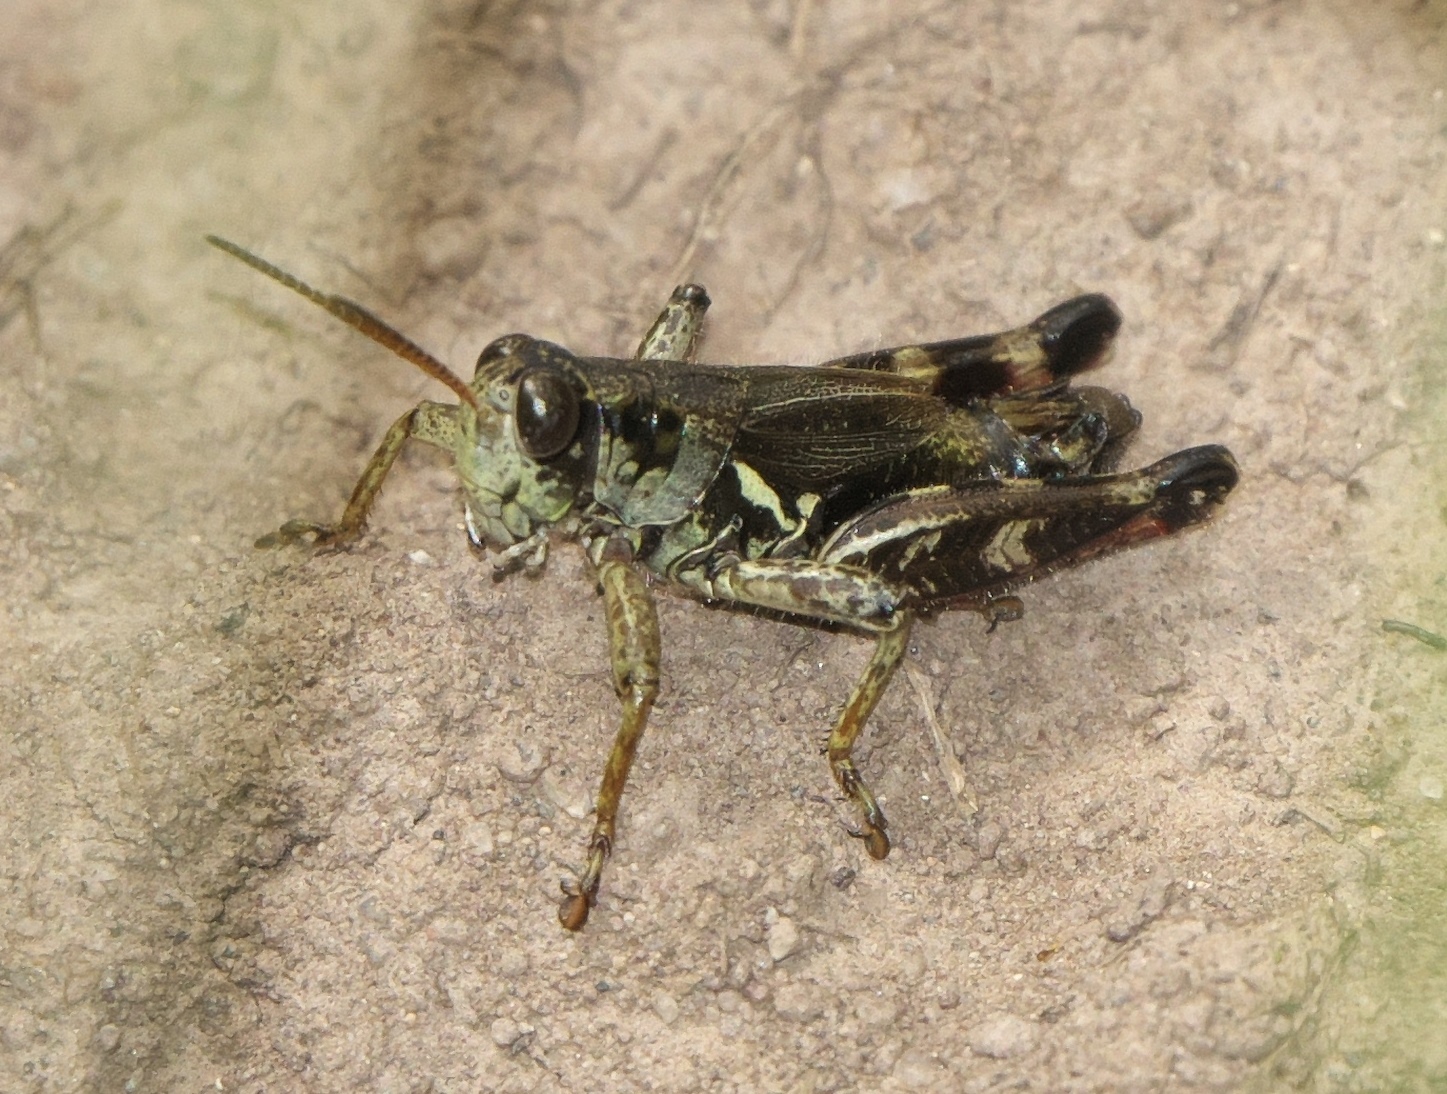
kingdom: Animalia
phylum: Arthropoda
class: Insecta
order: Orthoptera
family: Acrididae
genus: Melanoplus
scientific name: Melanoplus stupefactus
